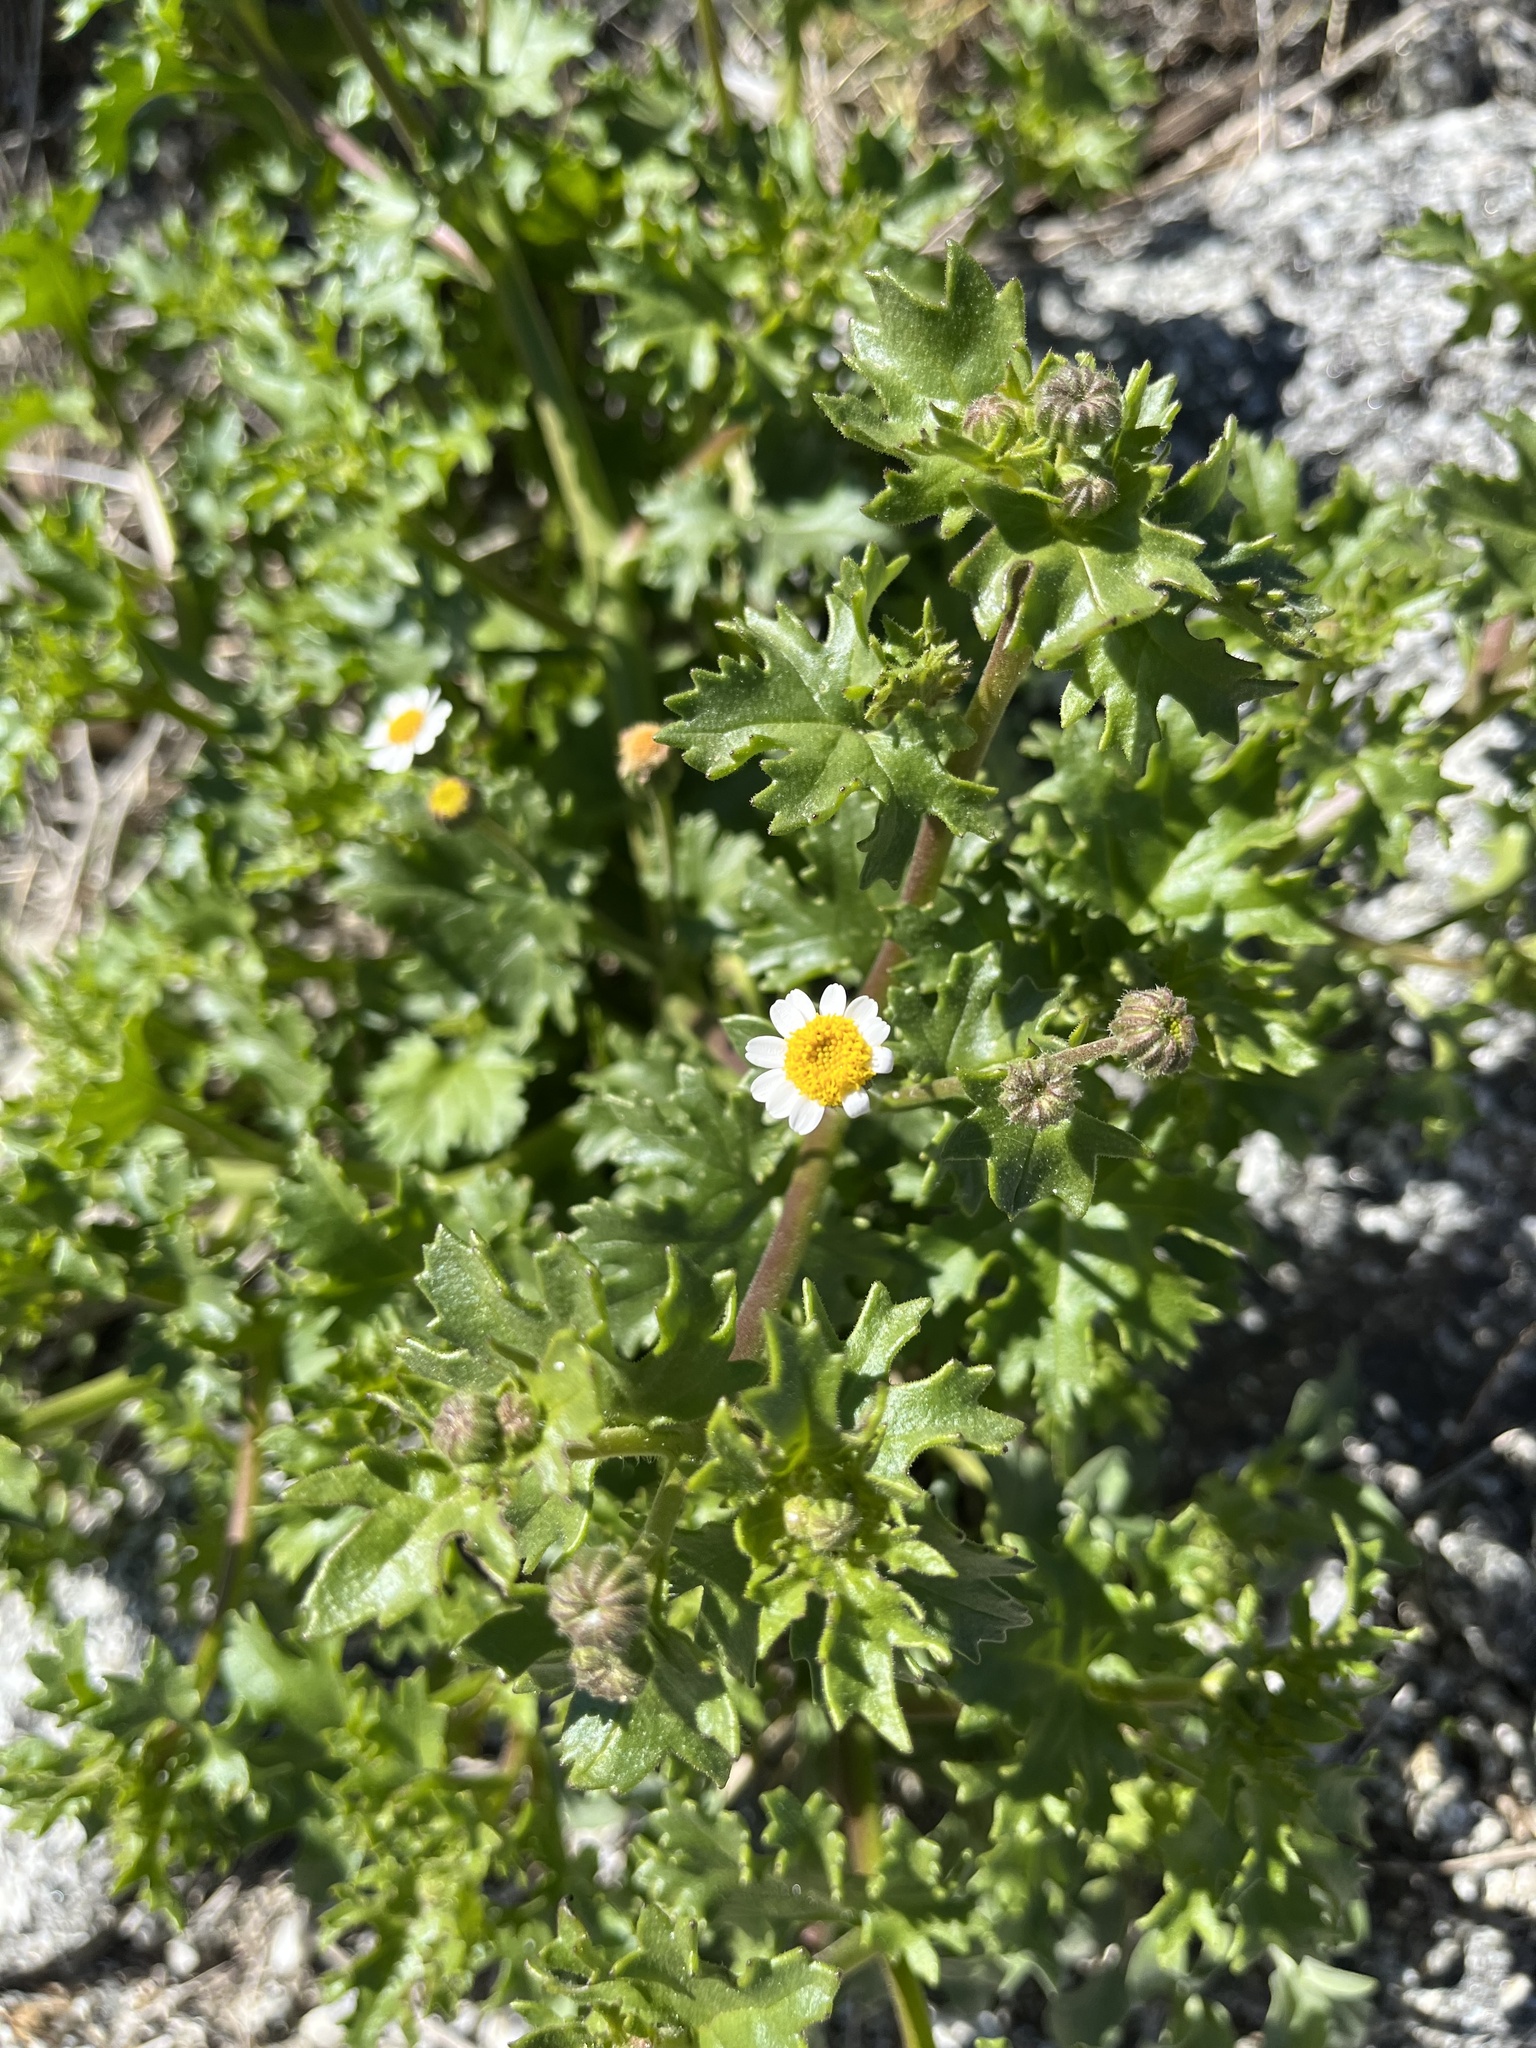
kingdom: Plantae
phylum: Tracheophyta
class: Magnoliopsida
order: Asterales
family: Asteraceae
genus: Laphamia
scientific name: Laphamia emoryi
